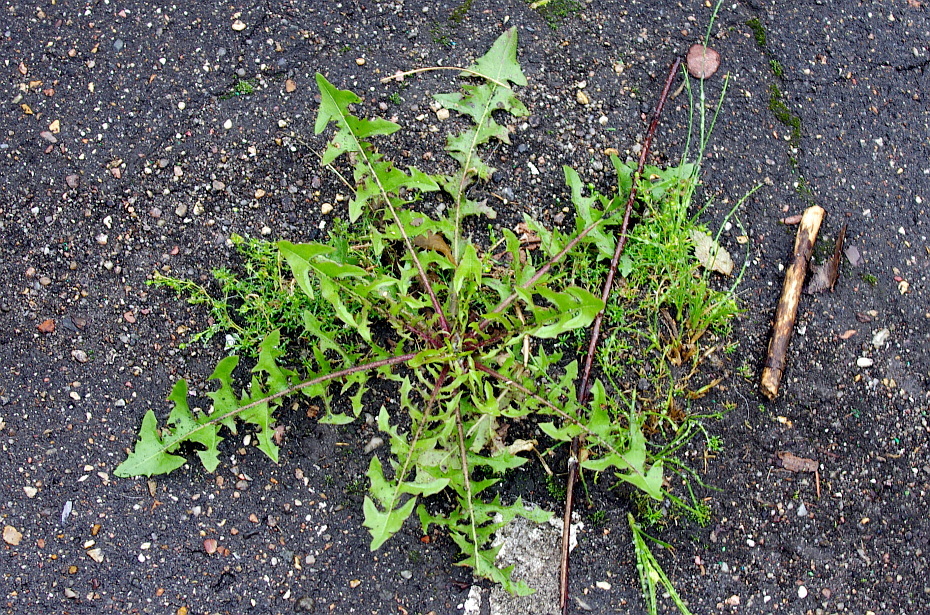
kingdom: Plantae
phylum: Tracheophyta
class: Magnoliopsida
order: Asterales
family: Asteraceae
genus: Taraxacum
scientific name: Taraxacum officinale
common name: Common dandelion
